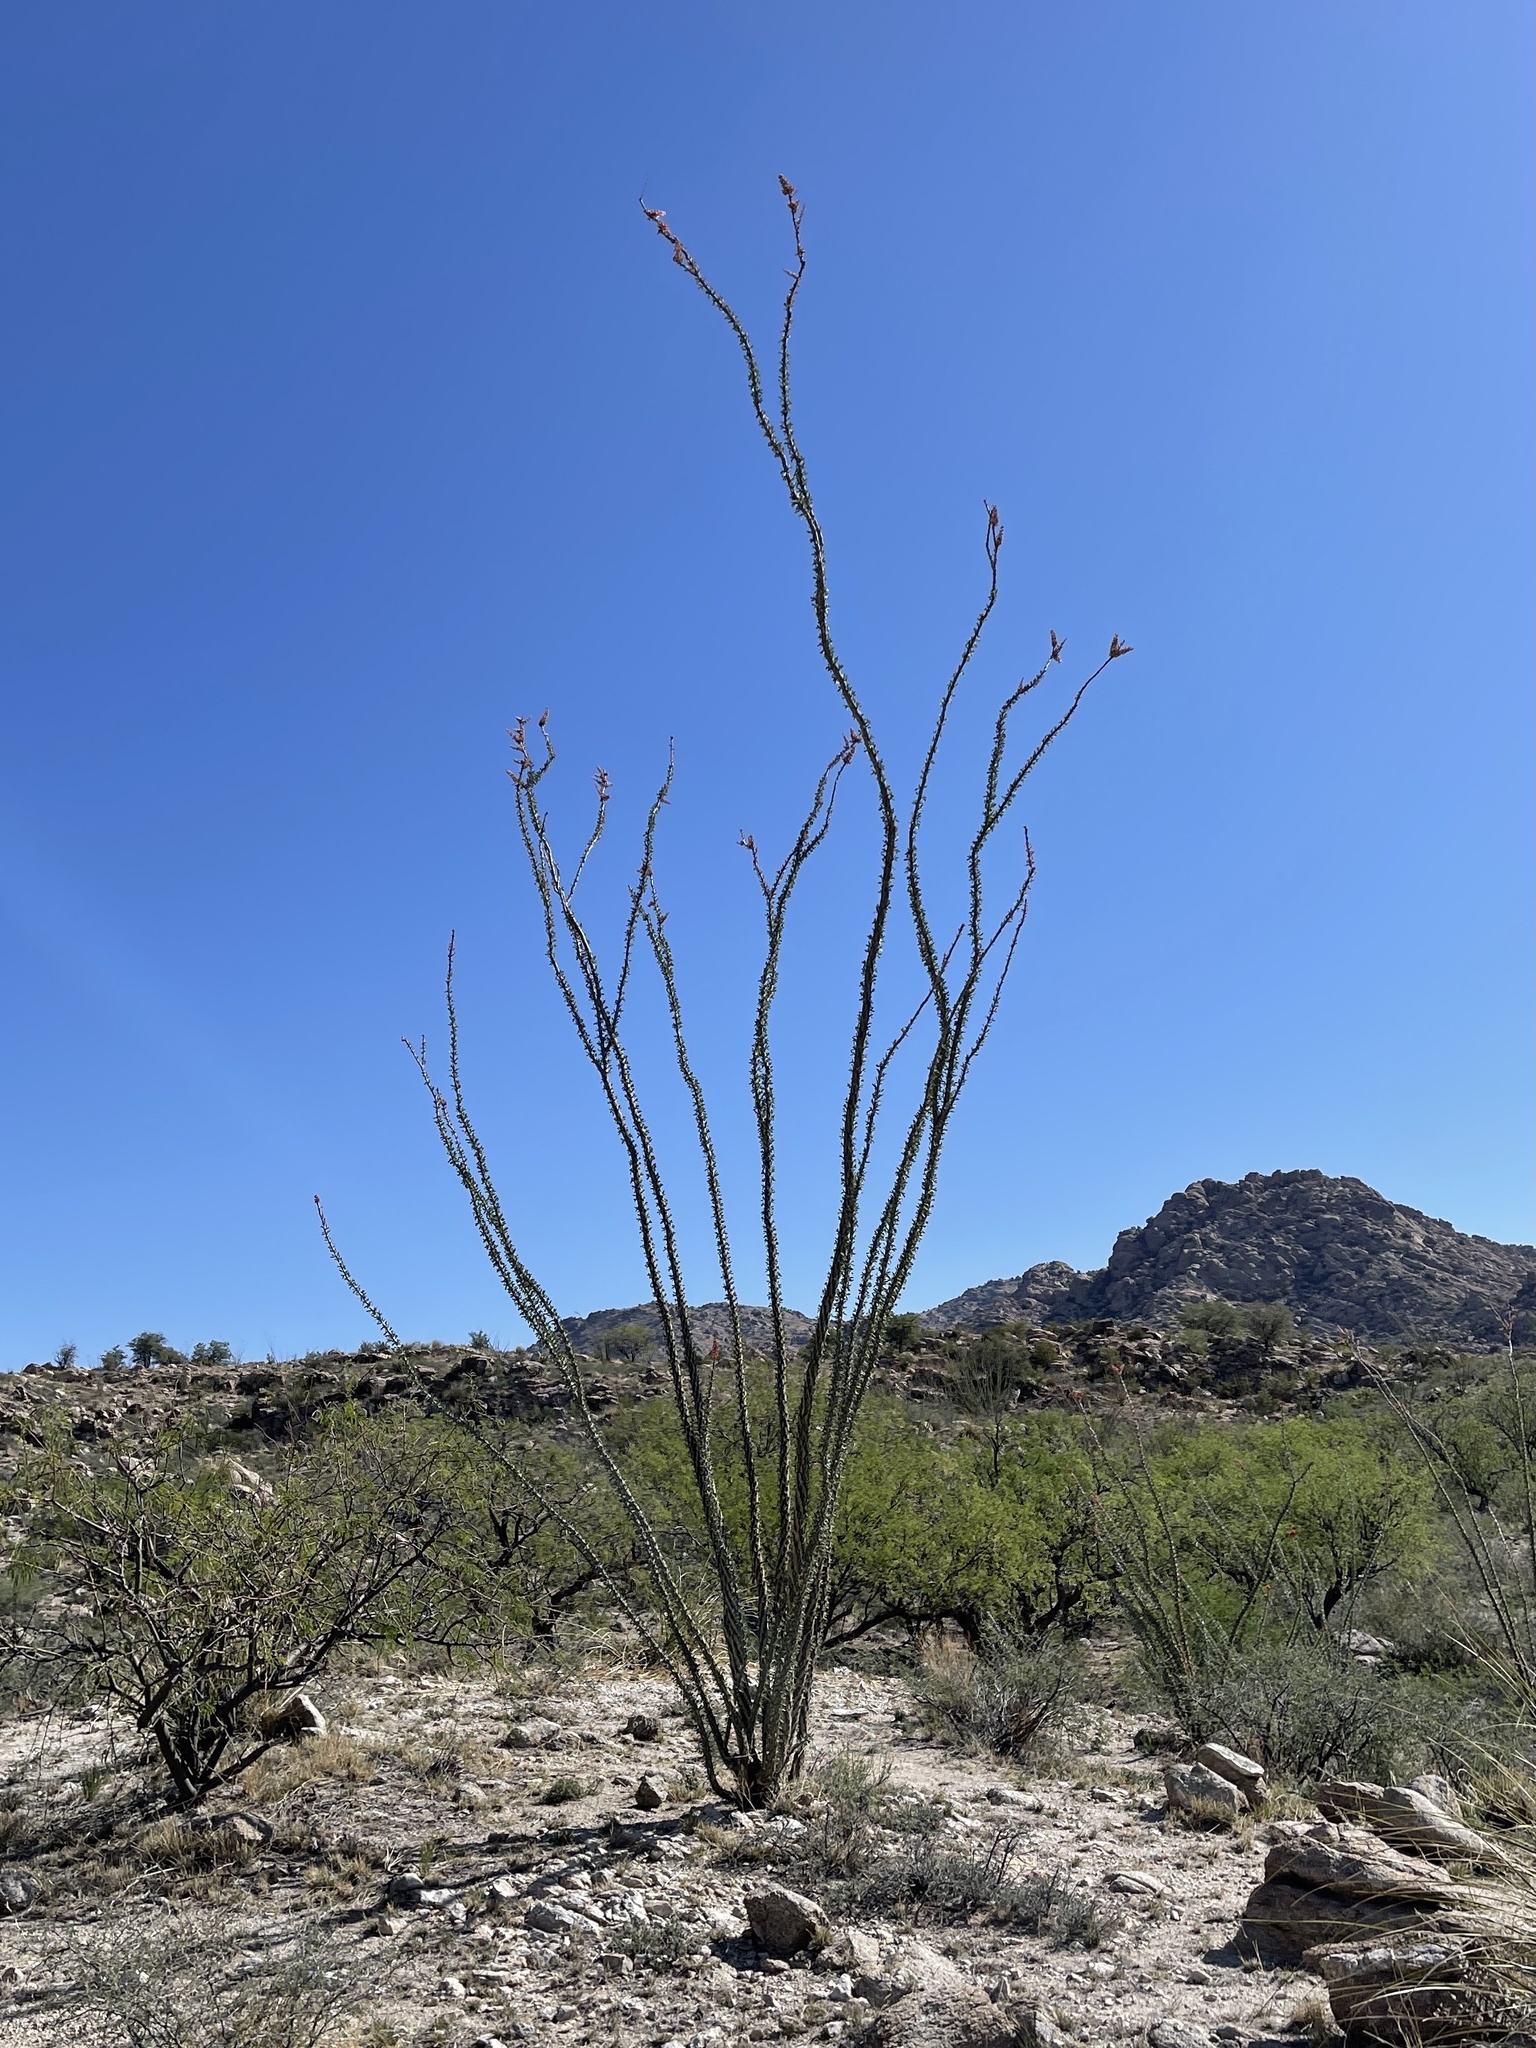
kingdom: Plantae
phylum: Tracheophyta
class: Magnoliopsida
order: Ericales
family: Fouquieriaceae
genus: Fouquieria
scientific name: Fouquieria splendens
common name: Vine-cactus
